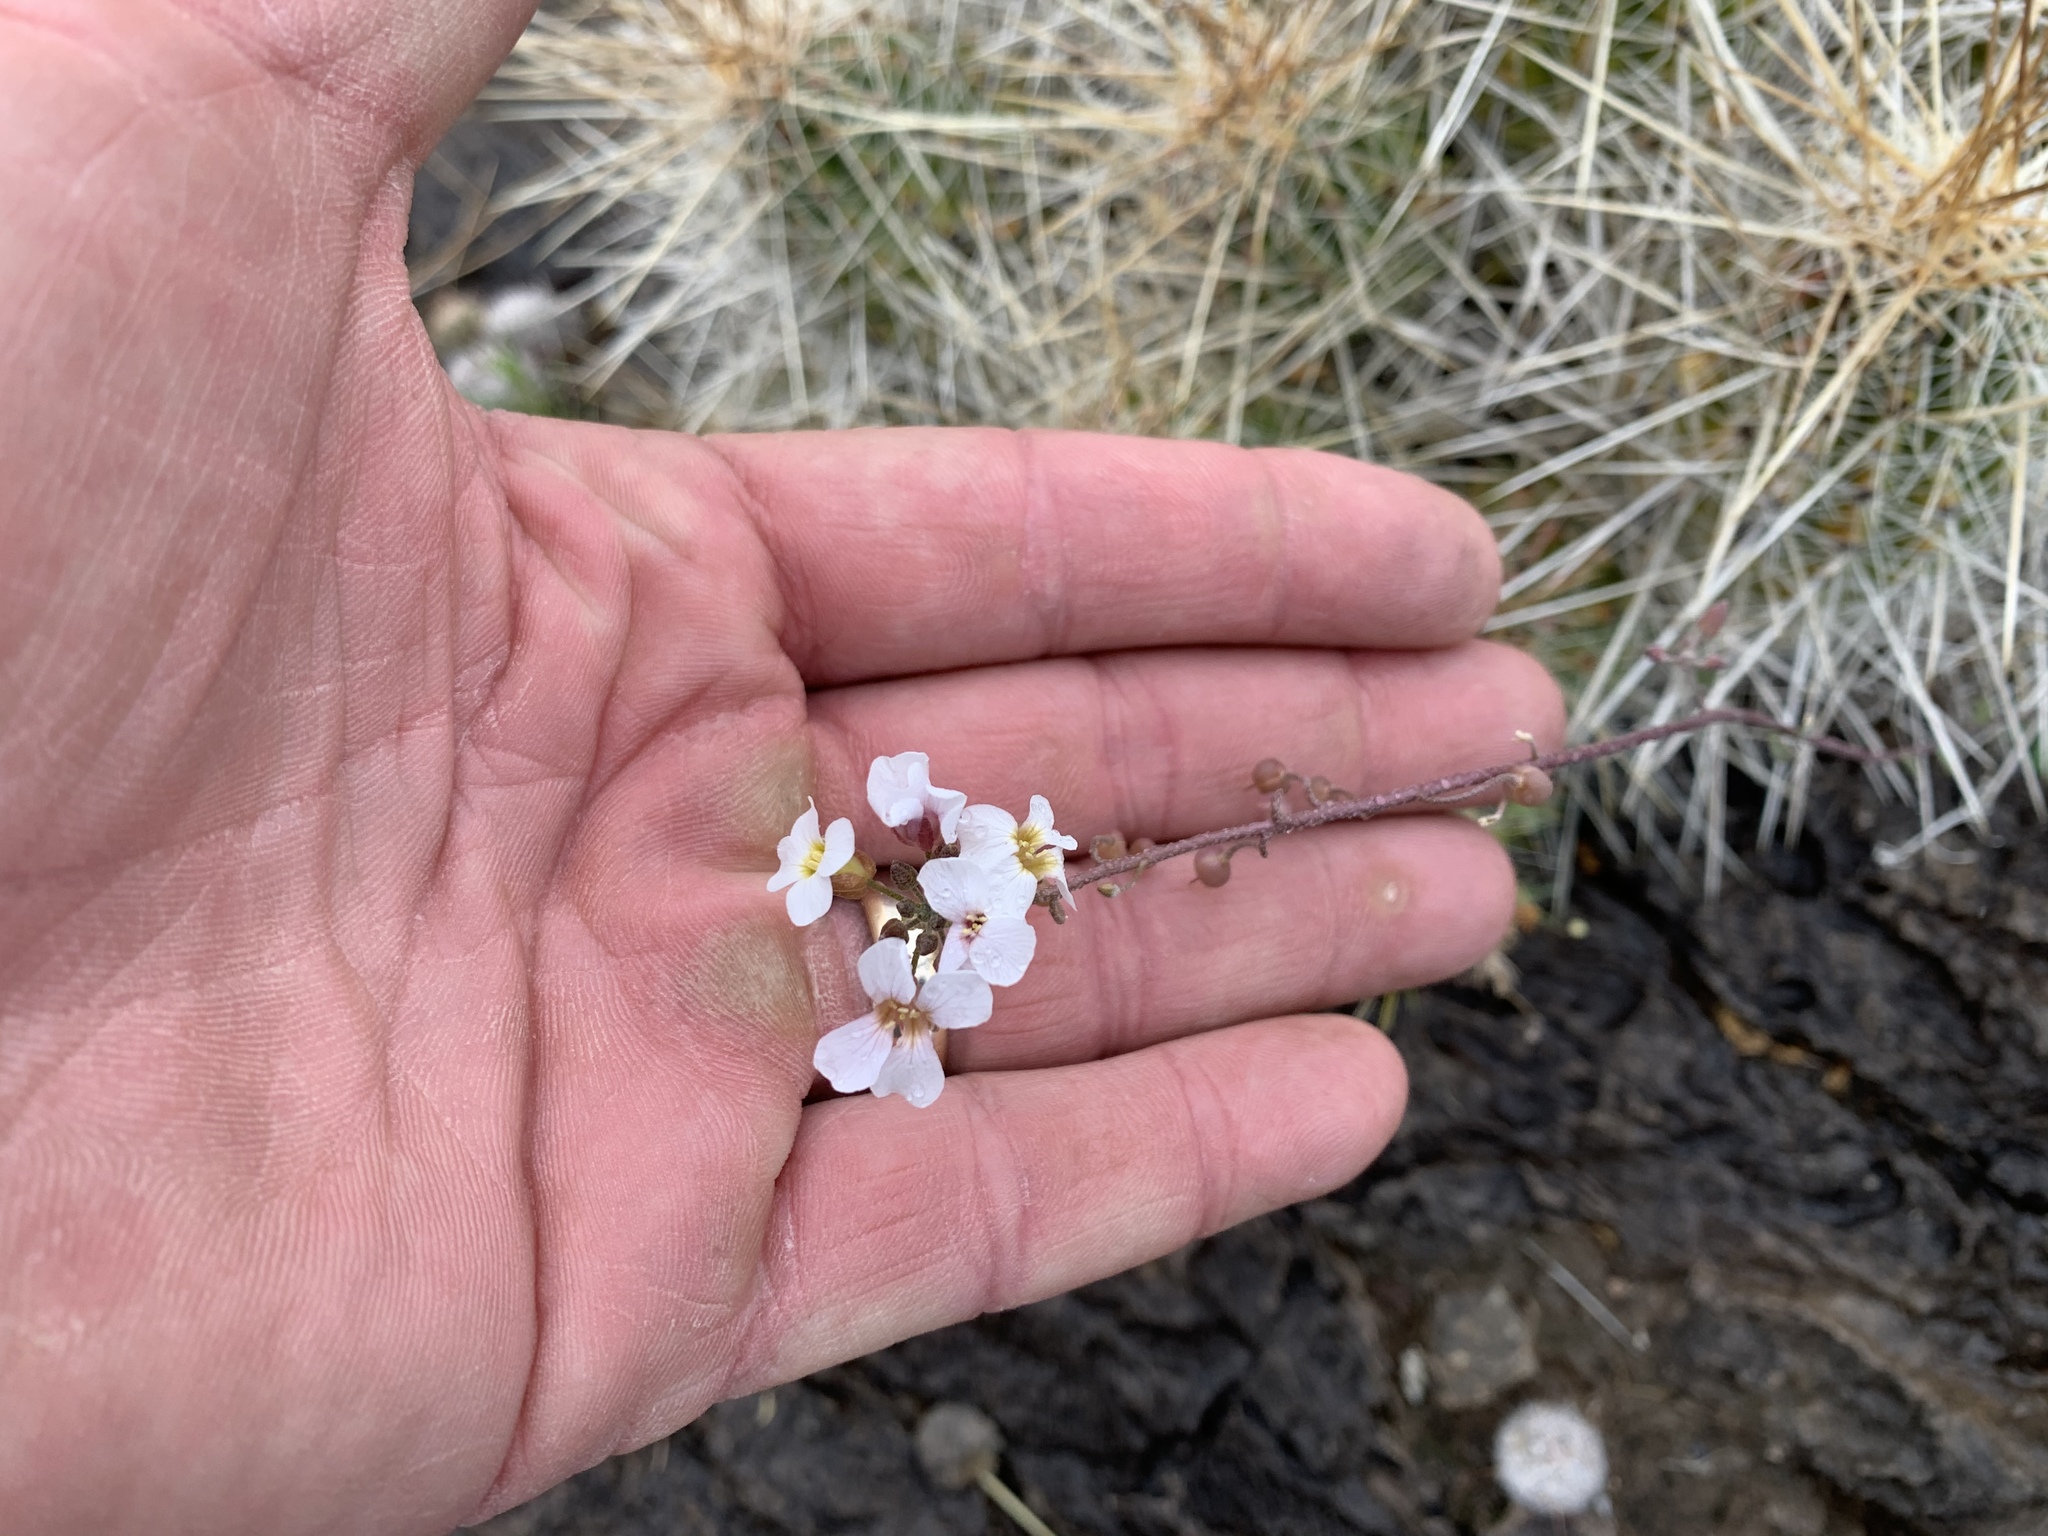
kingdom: Plantae
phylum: Tracheophyta
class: Magnoliopsida
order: Brassicales
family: Brassicaceae
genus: Physaria
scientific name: Physaria purpurea
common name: Rose bladderpod
